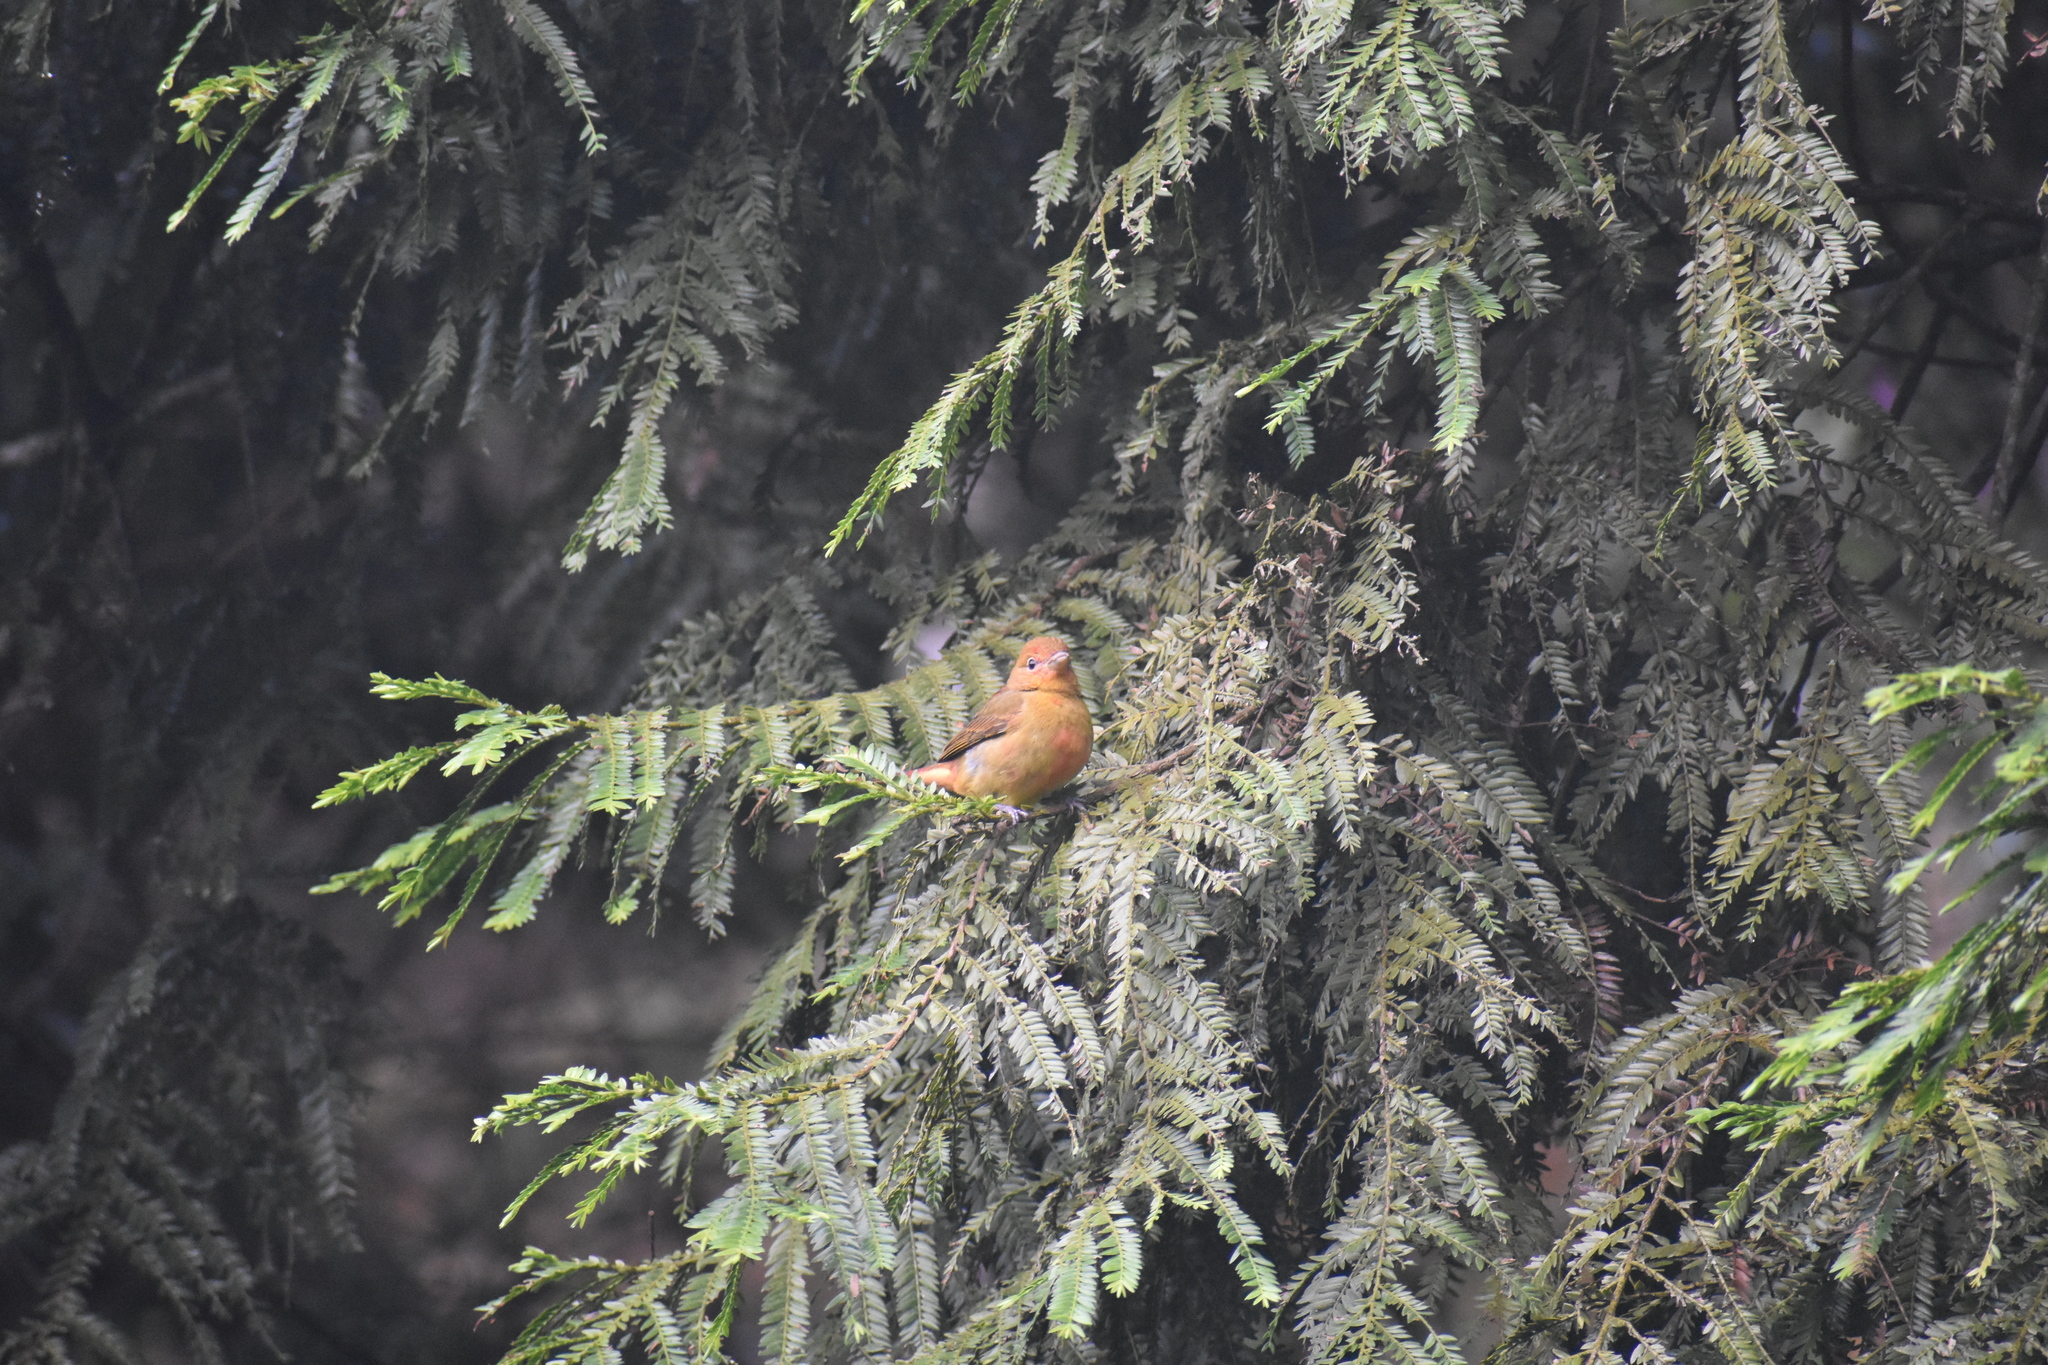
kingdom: Animalia
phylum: Chordata
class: Aves
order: Passeriformes
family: Cardinalidae
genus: Piranga
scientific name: Piranga rubra
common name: Summer tanager
